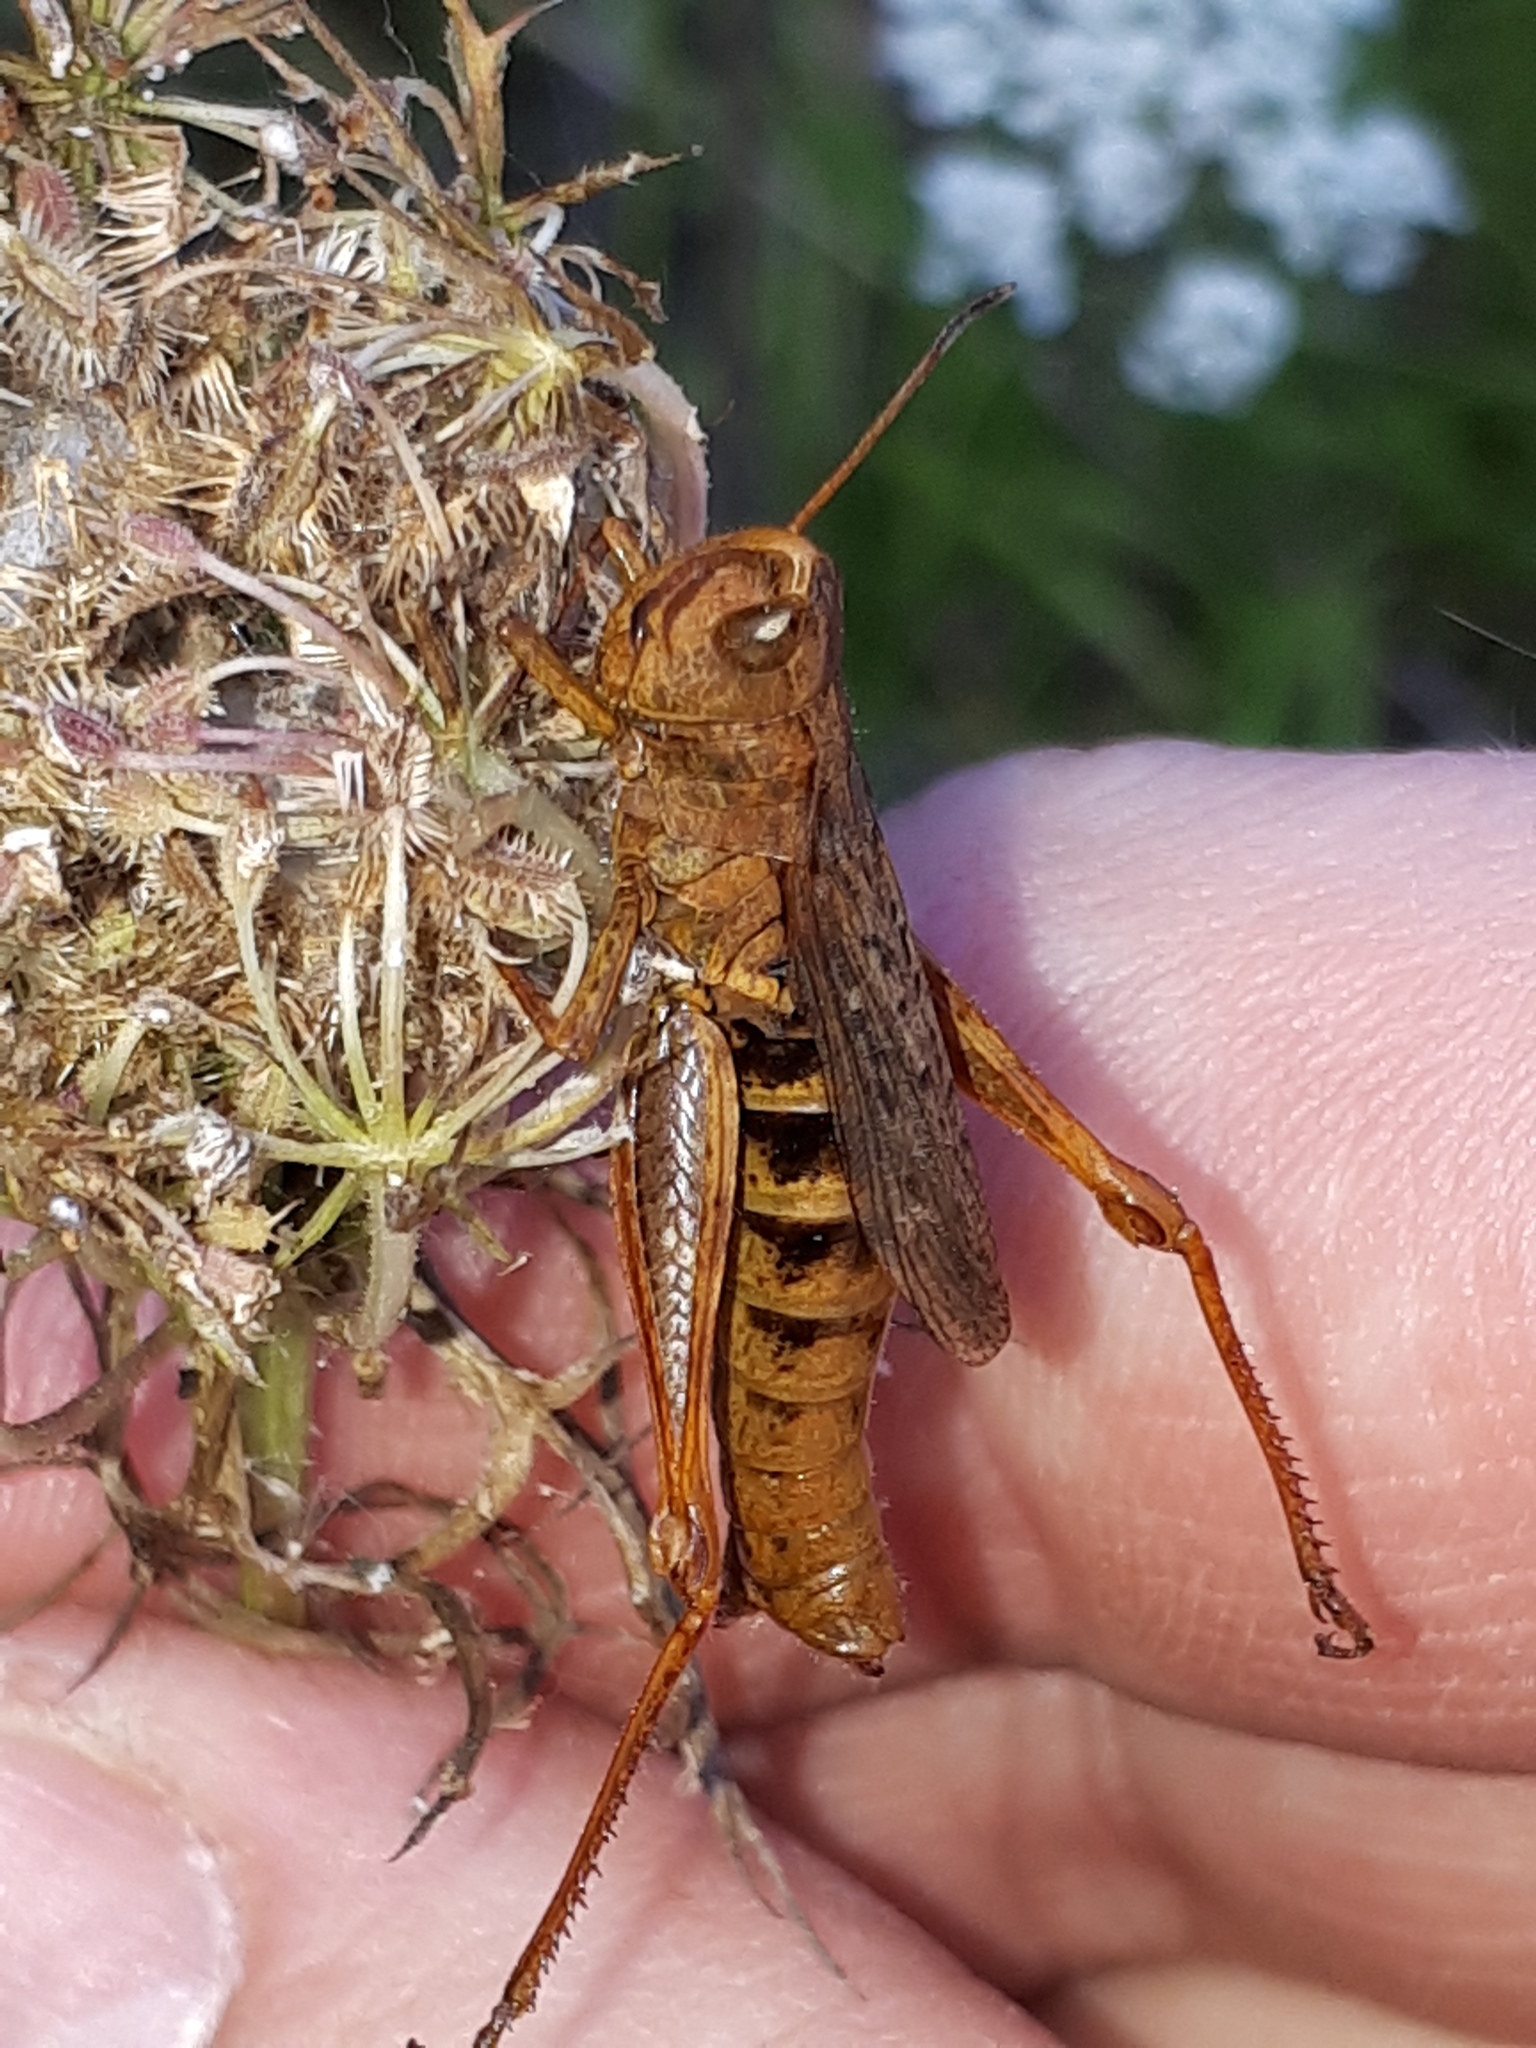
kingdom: Animalia
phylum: Arthropoda
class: Insecta
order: Orthoptera
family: Acrididae
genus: Gomphocerippus
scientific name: Gomphocerippus rufus
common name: Rufous grasshopper
